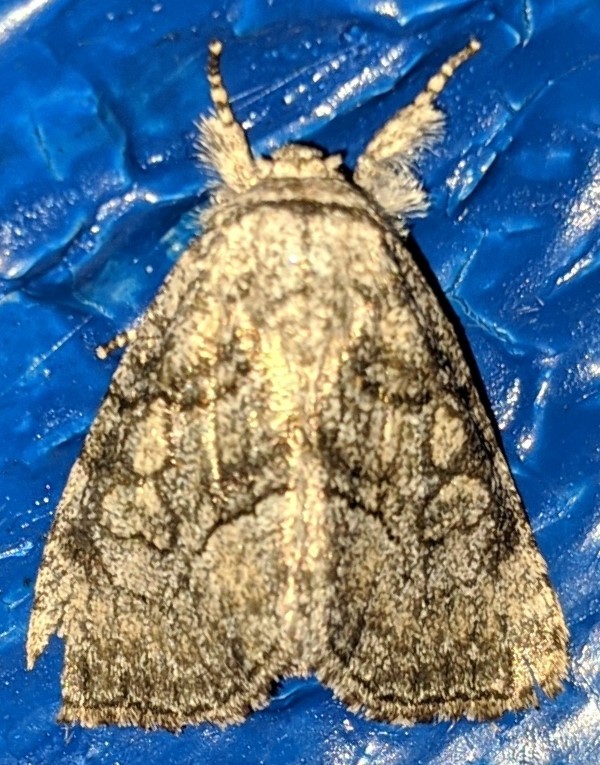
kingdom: Animalia
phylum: Arthropoda
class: Insecta
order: Lepidoptera
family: Noctuidae
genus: Raphia
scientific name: Raphia frater
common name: Brother
